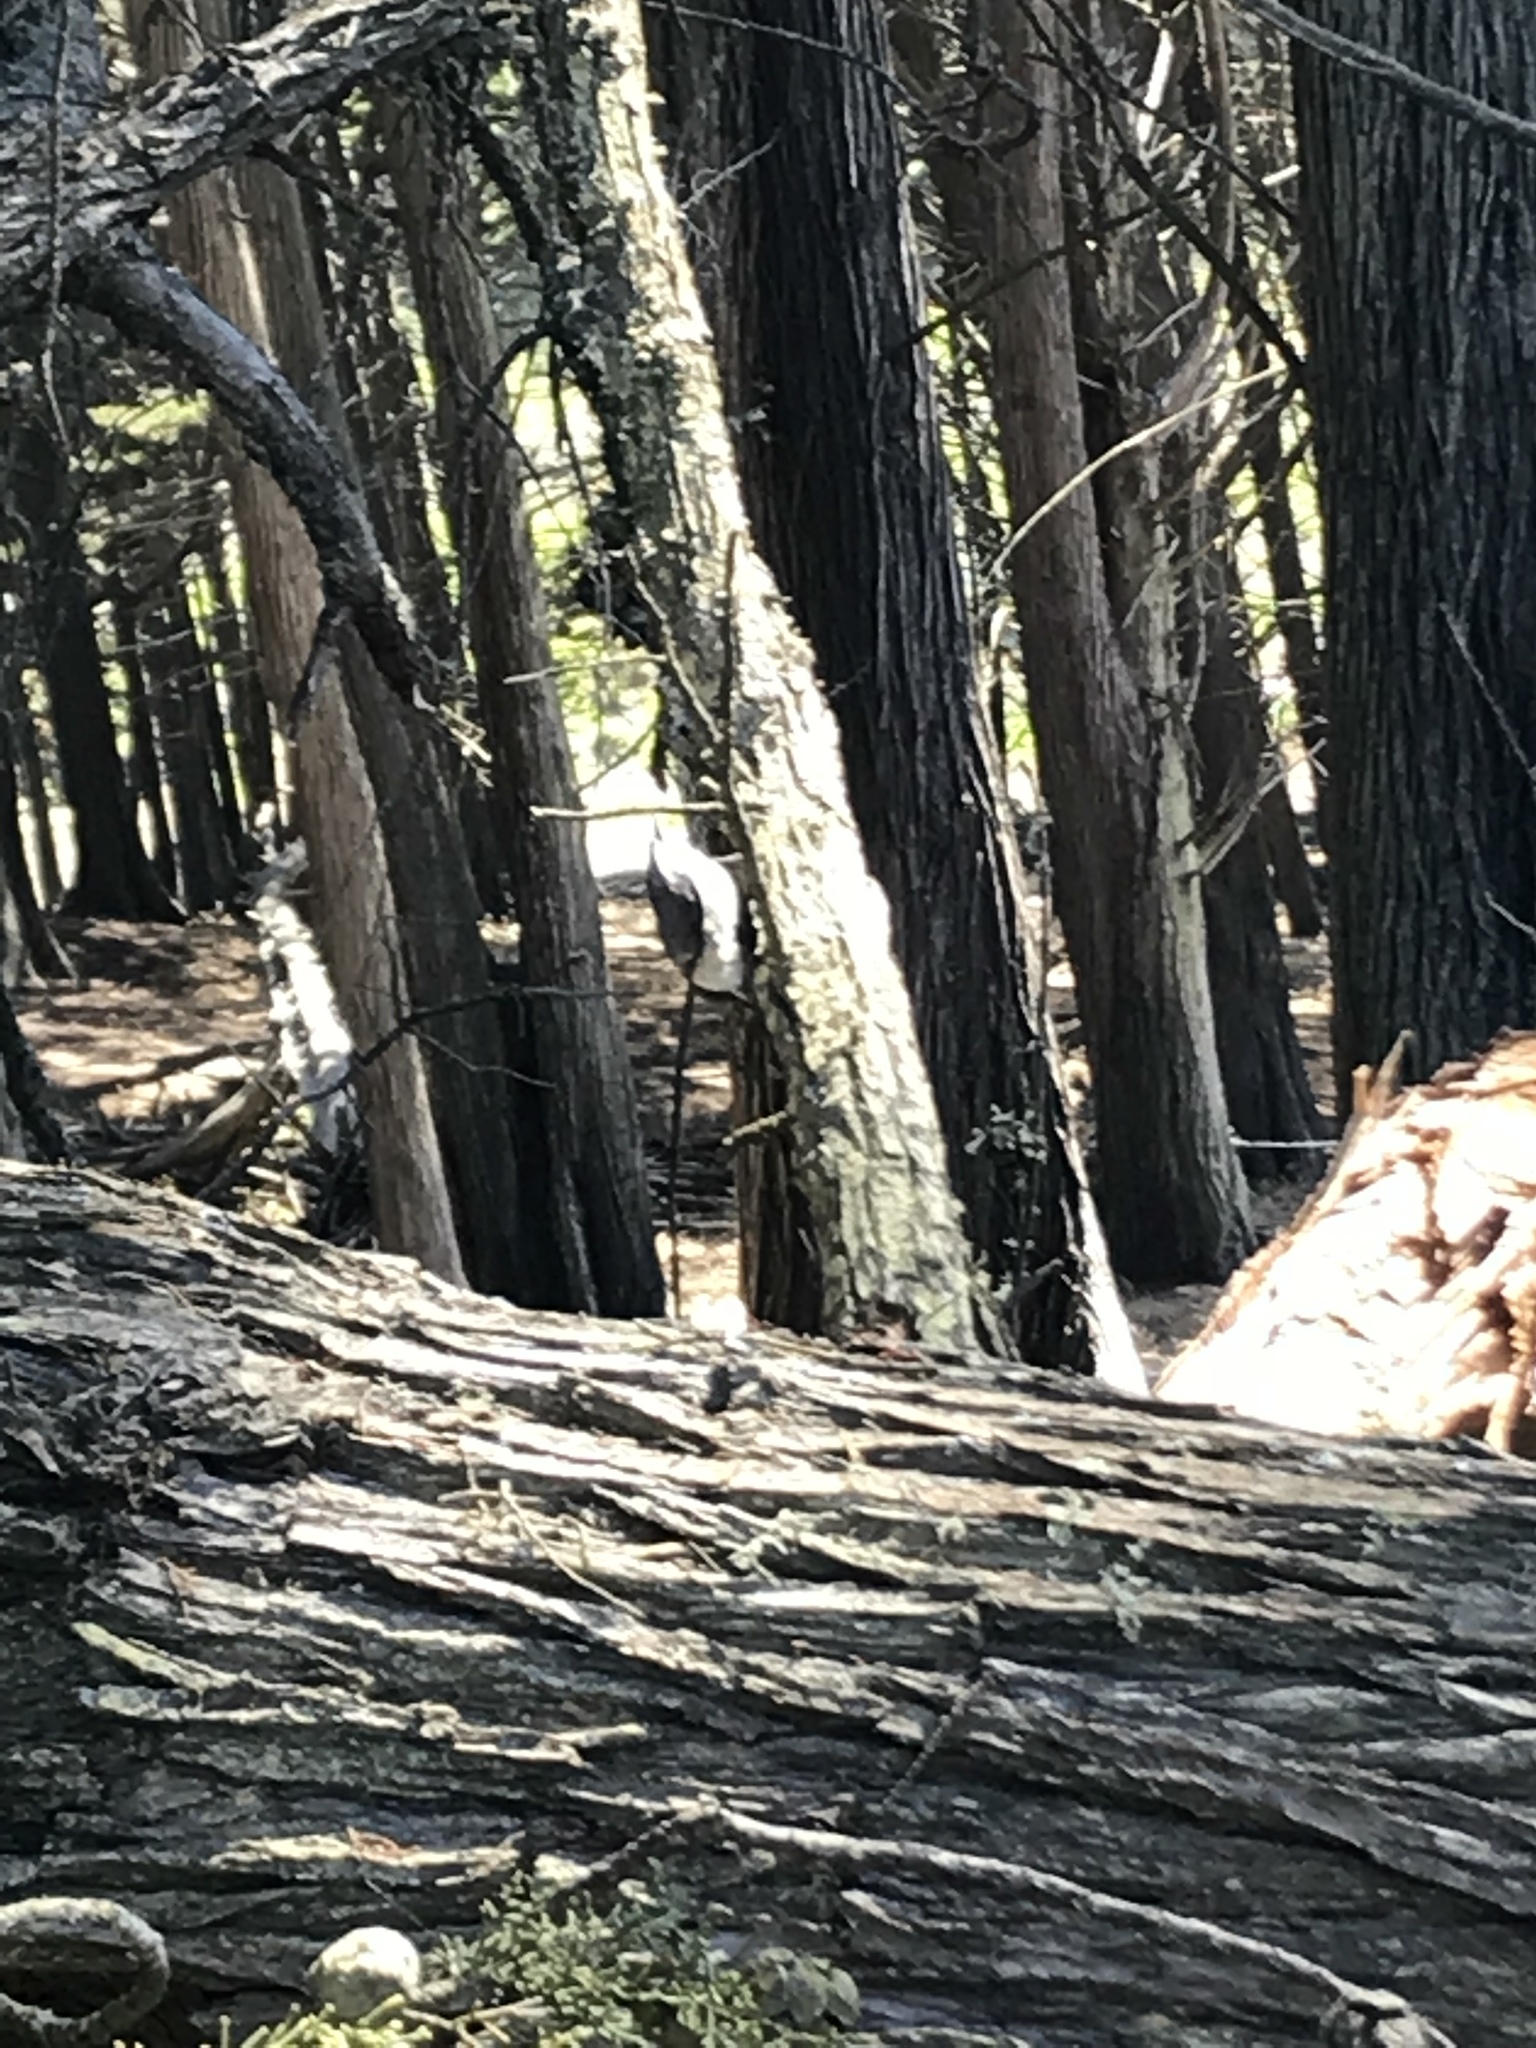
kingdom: Animalia
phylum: Chordata
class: Aves
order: Passeriformes
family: Sittidae
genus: Sitta
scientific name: Sitta pygmaea
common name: Pygmy nuthatch
